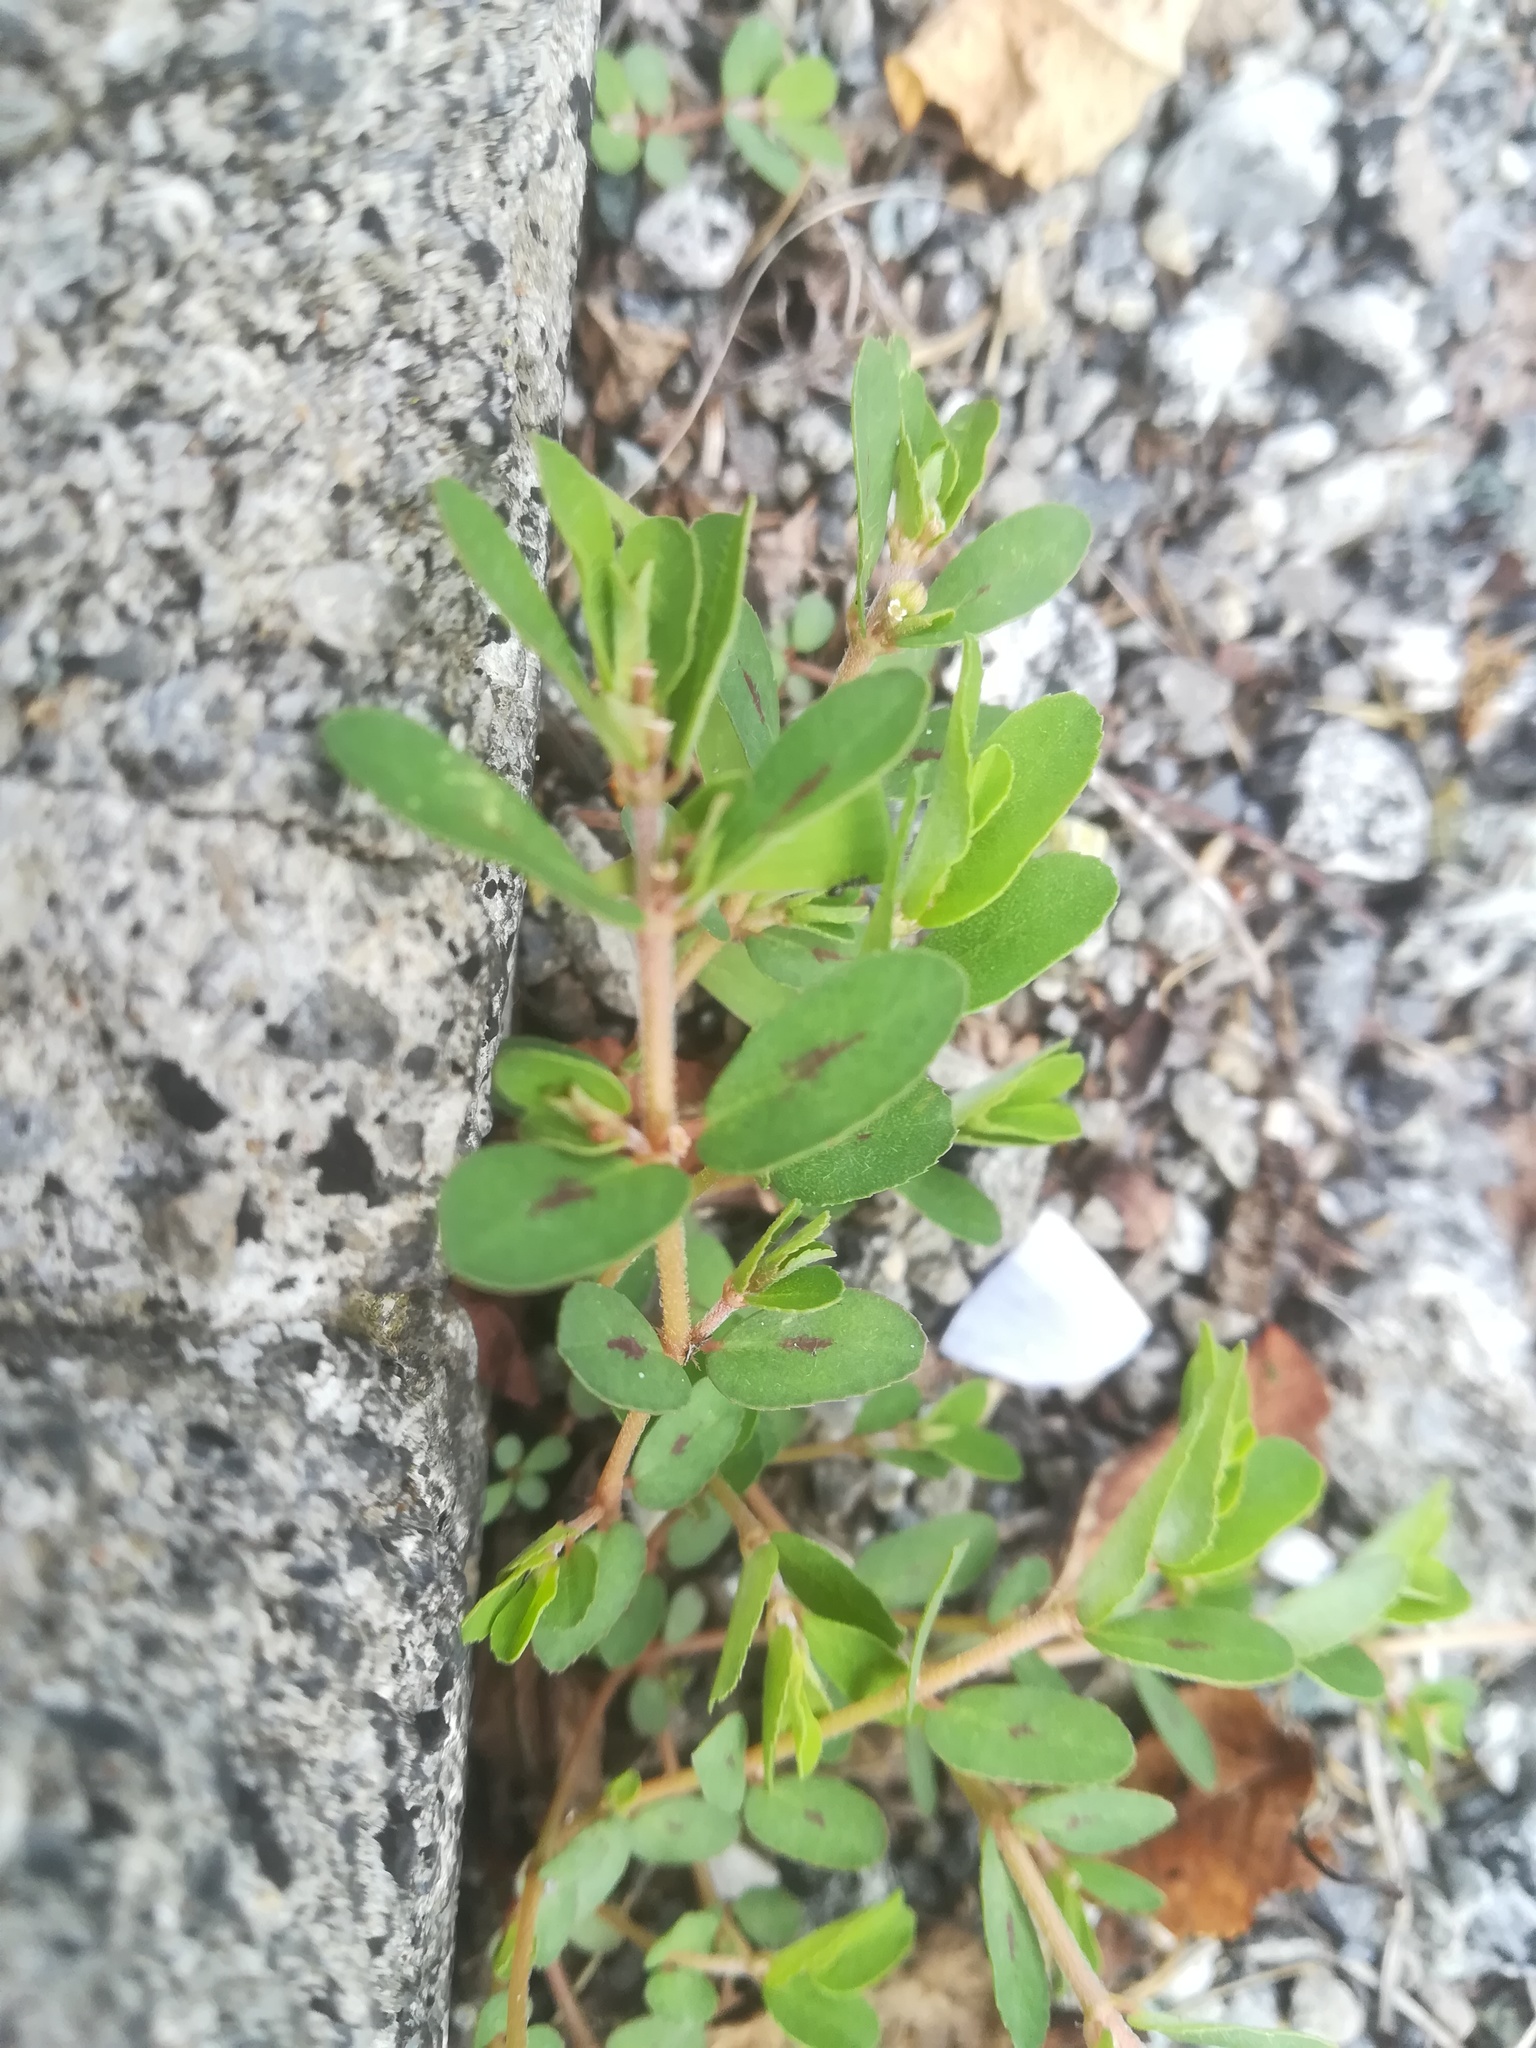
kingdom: Plantae
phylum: Tracheophyta
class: Magnoliopsida
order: Malpighiales
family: Euphorbiaceae
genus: Euphorbia
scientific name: Euphorbia maculata
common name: Spotted spurge
